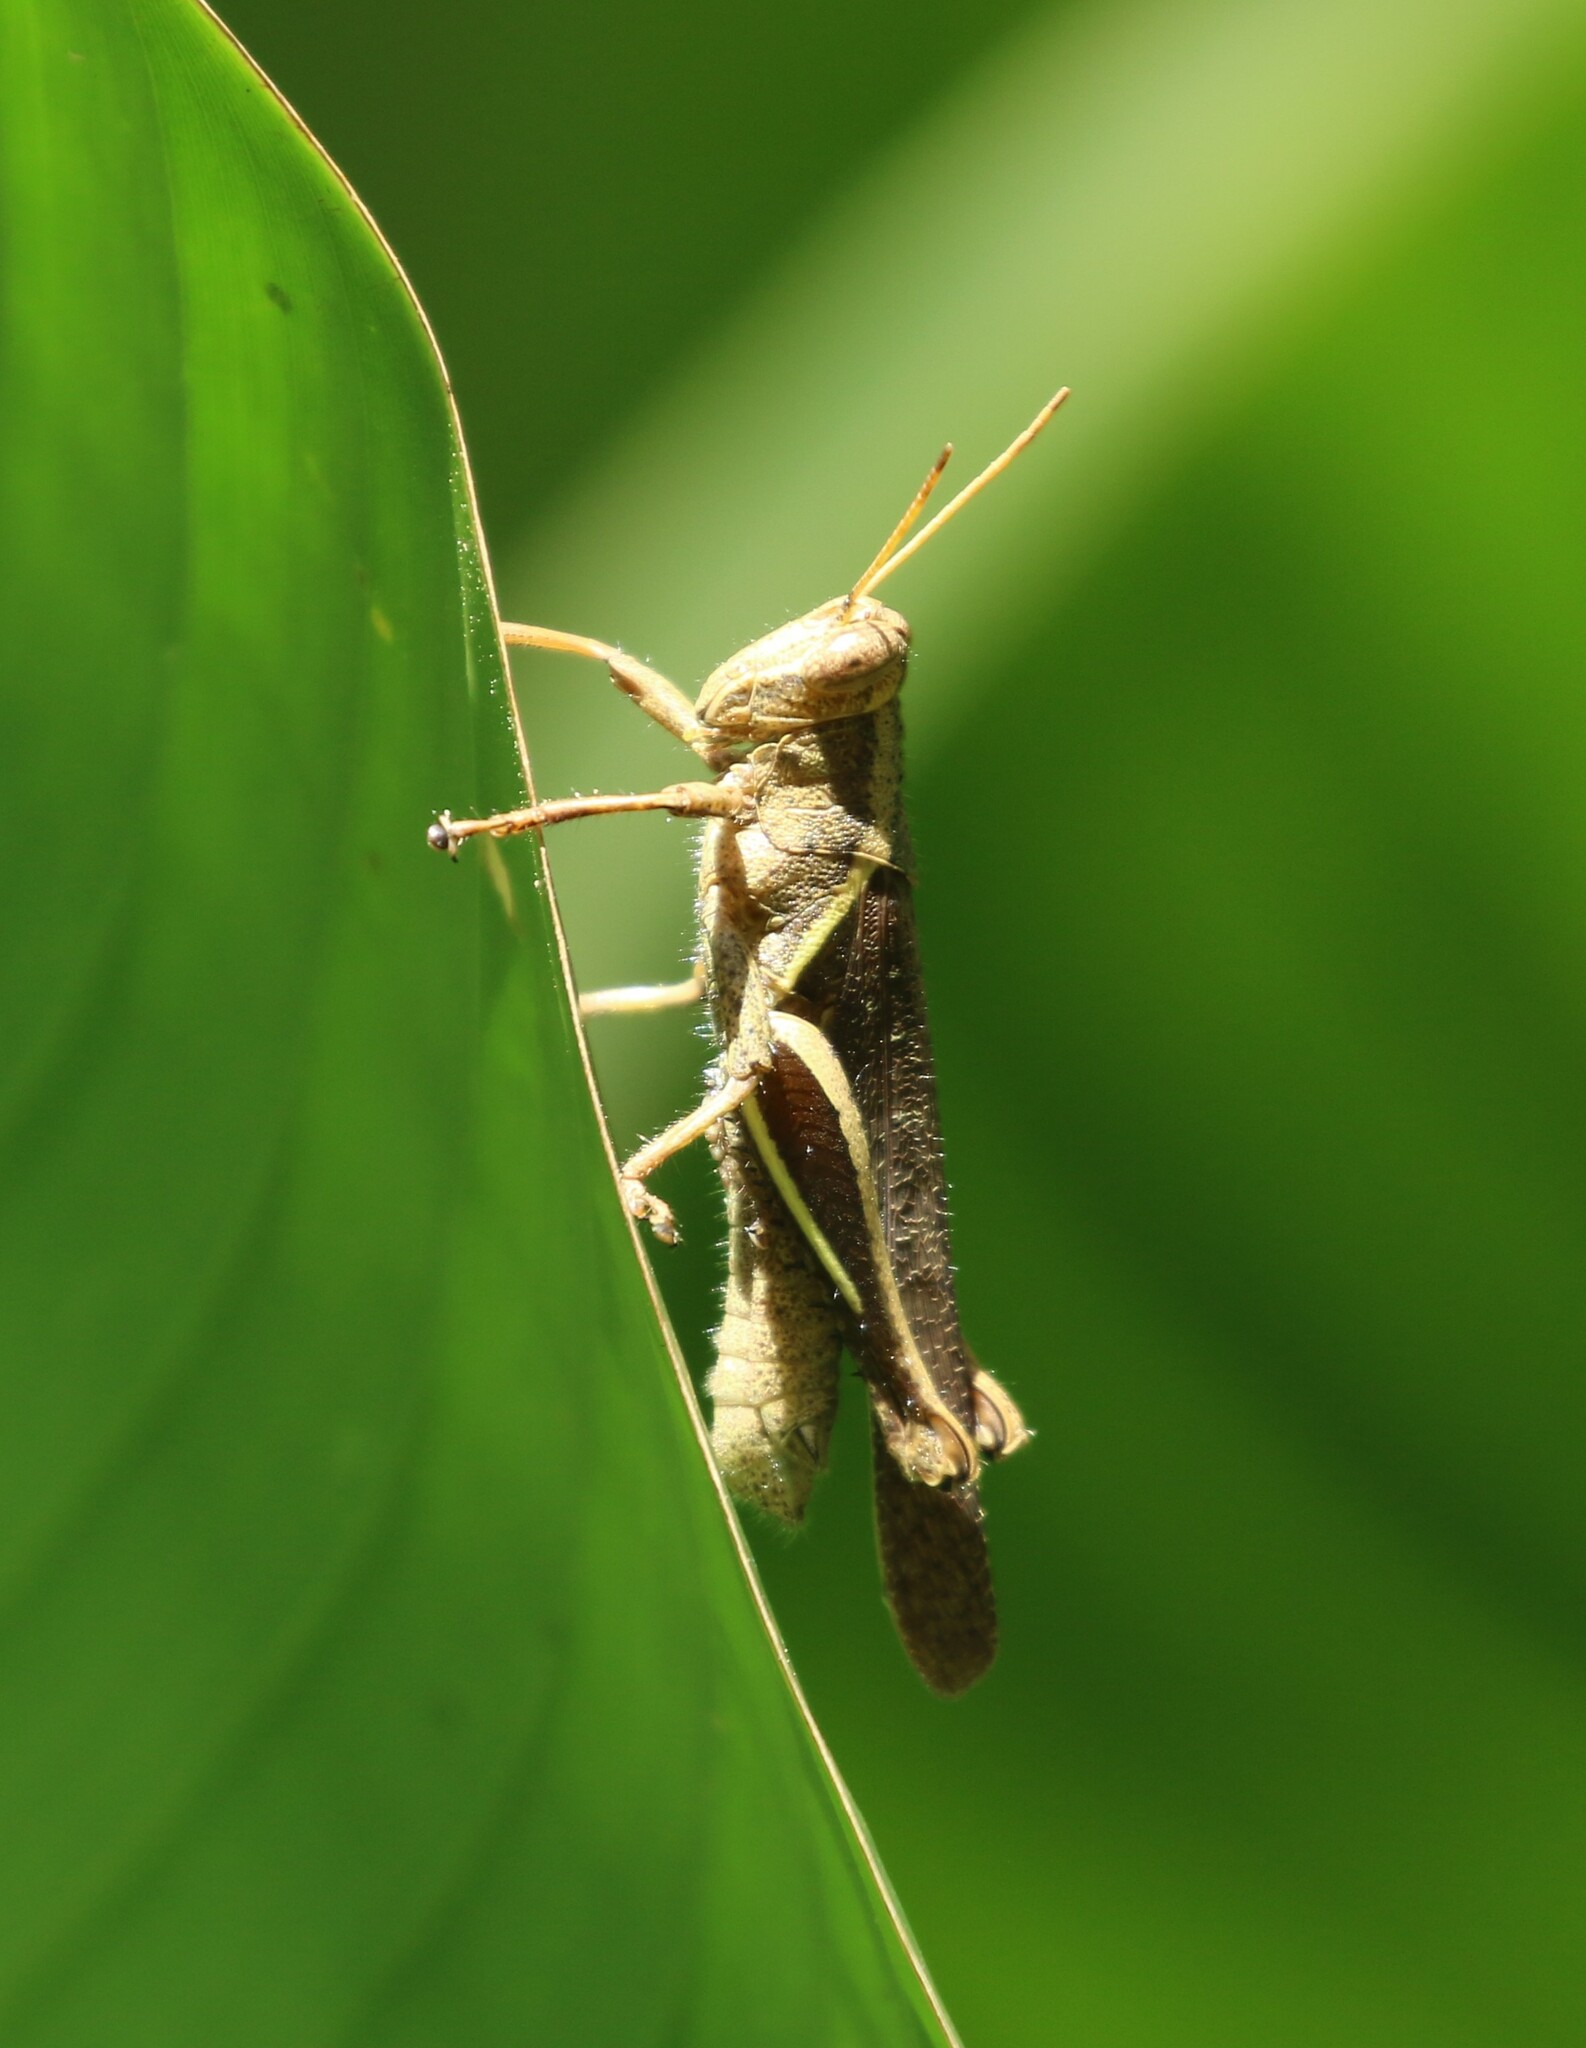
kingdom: Animalia
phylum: Arthropoda
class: Insecta
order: Orthoptera
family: Acrididae
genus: Abracris
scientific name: Abracris flavolineata
